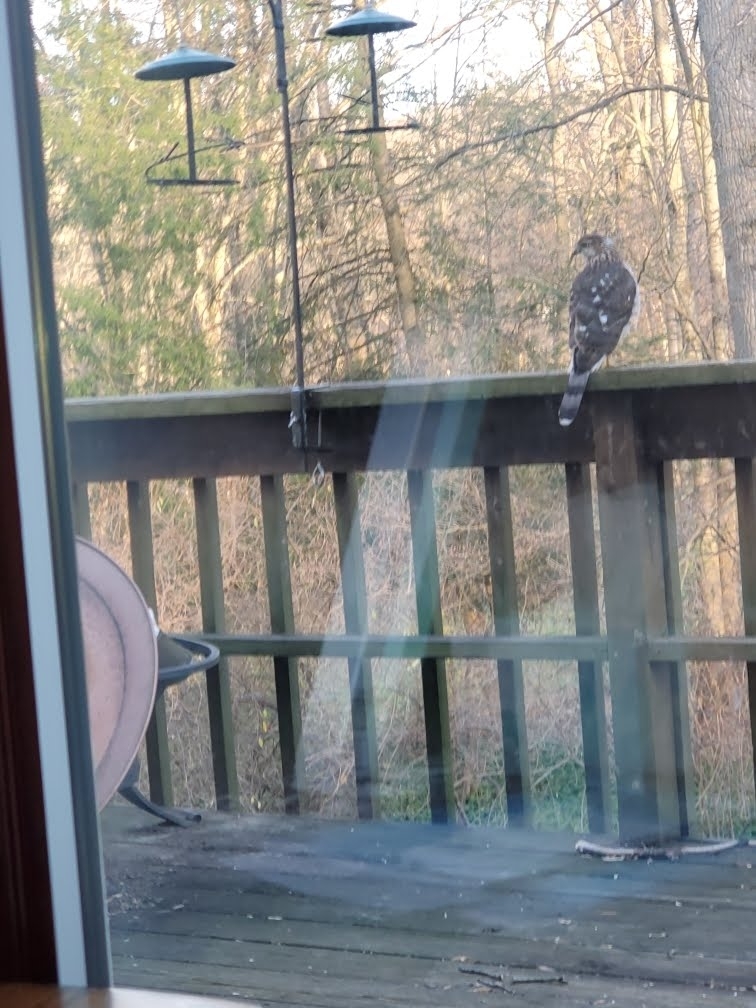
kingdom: Animalia
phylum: Chordata
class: Aves
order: Accipitriformes
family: Accipitridae
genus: Accipiter
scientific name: Accipiter cooperii
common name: Cooper's hawk
